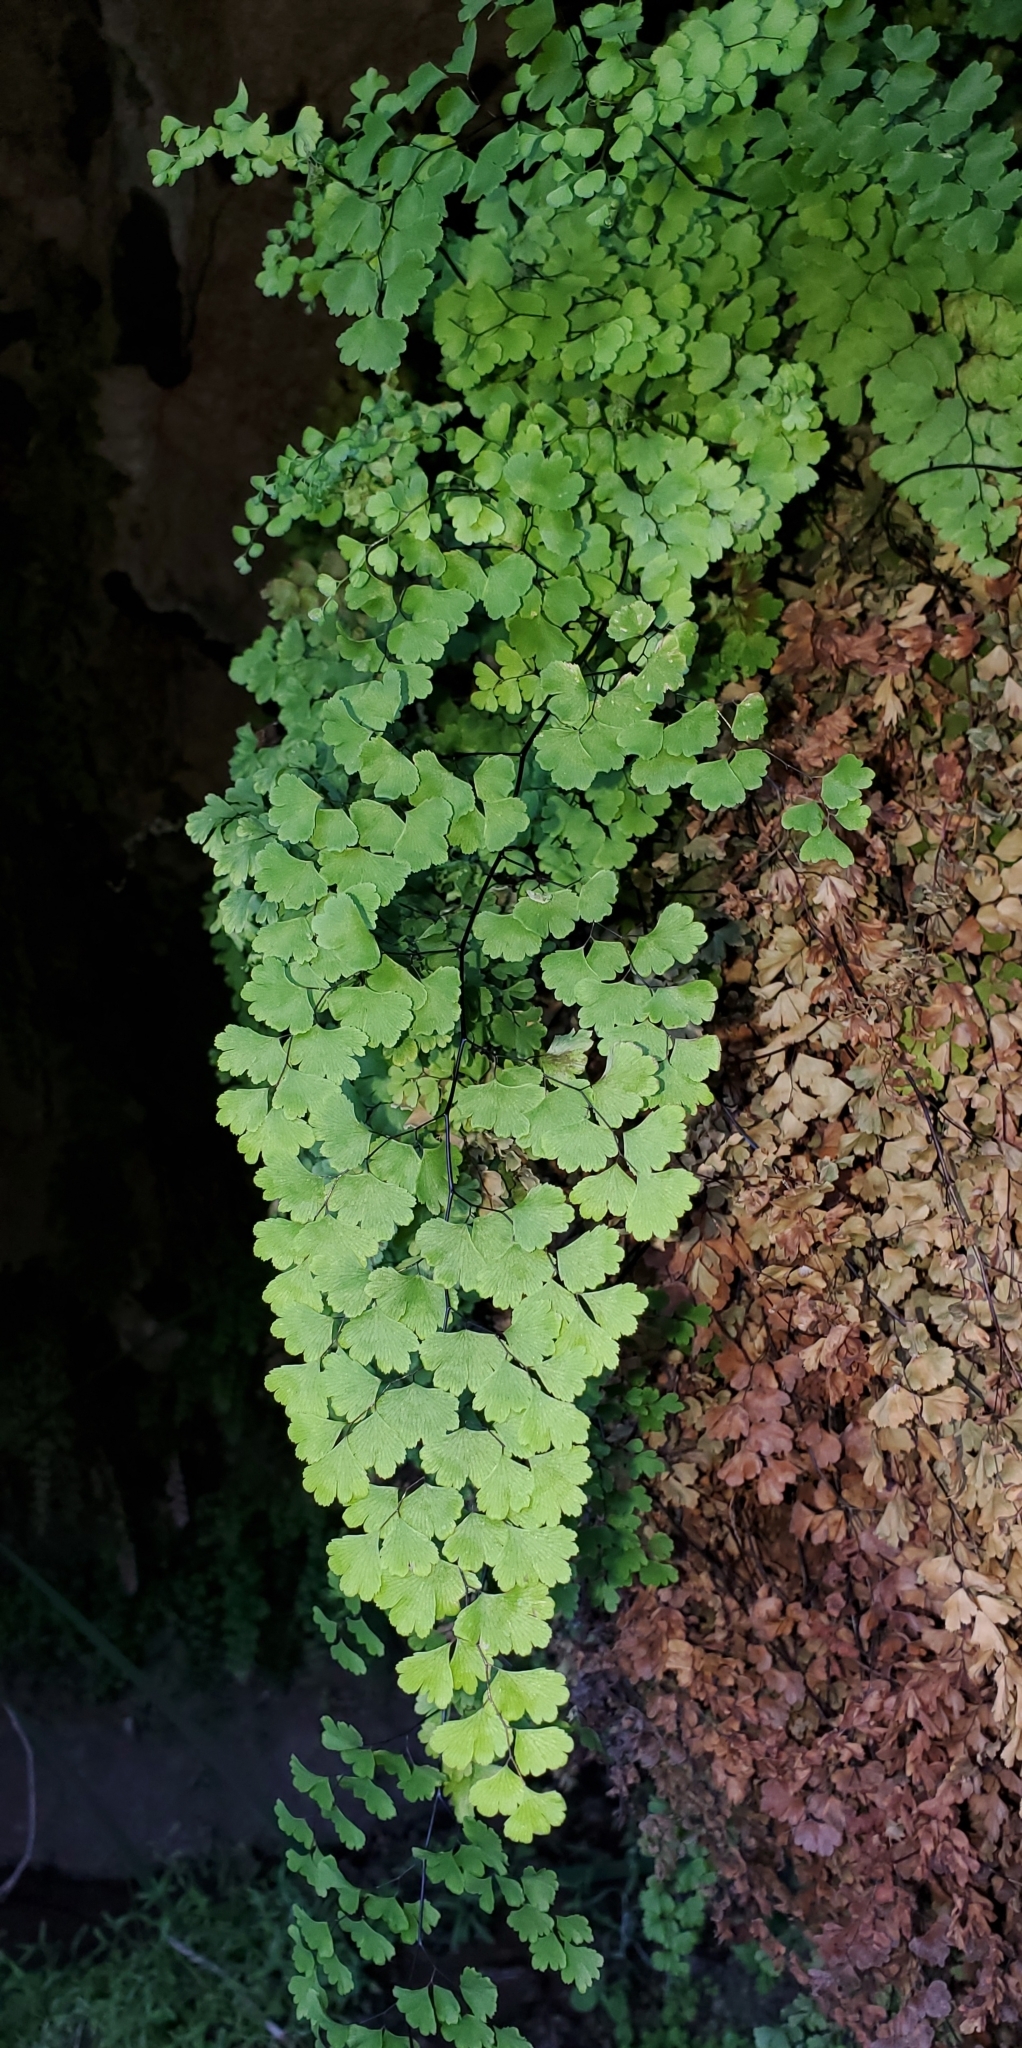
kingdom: Plantae
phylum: Tracheophyta
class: Polypodiopsida
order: Polypodiales
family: Pteridaceae
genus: Adiantum
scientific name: Adiantum capillus-veneris
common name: Maidenhair fern
